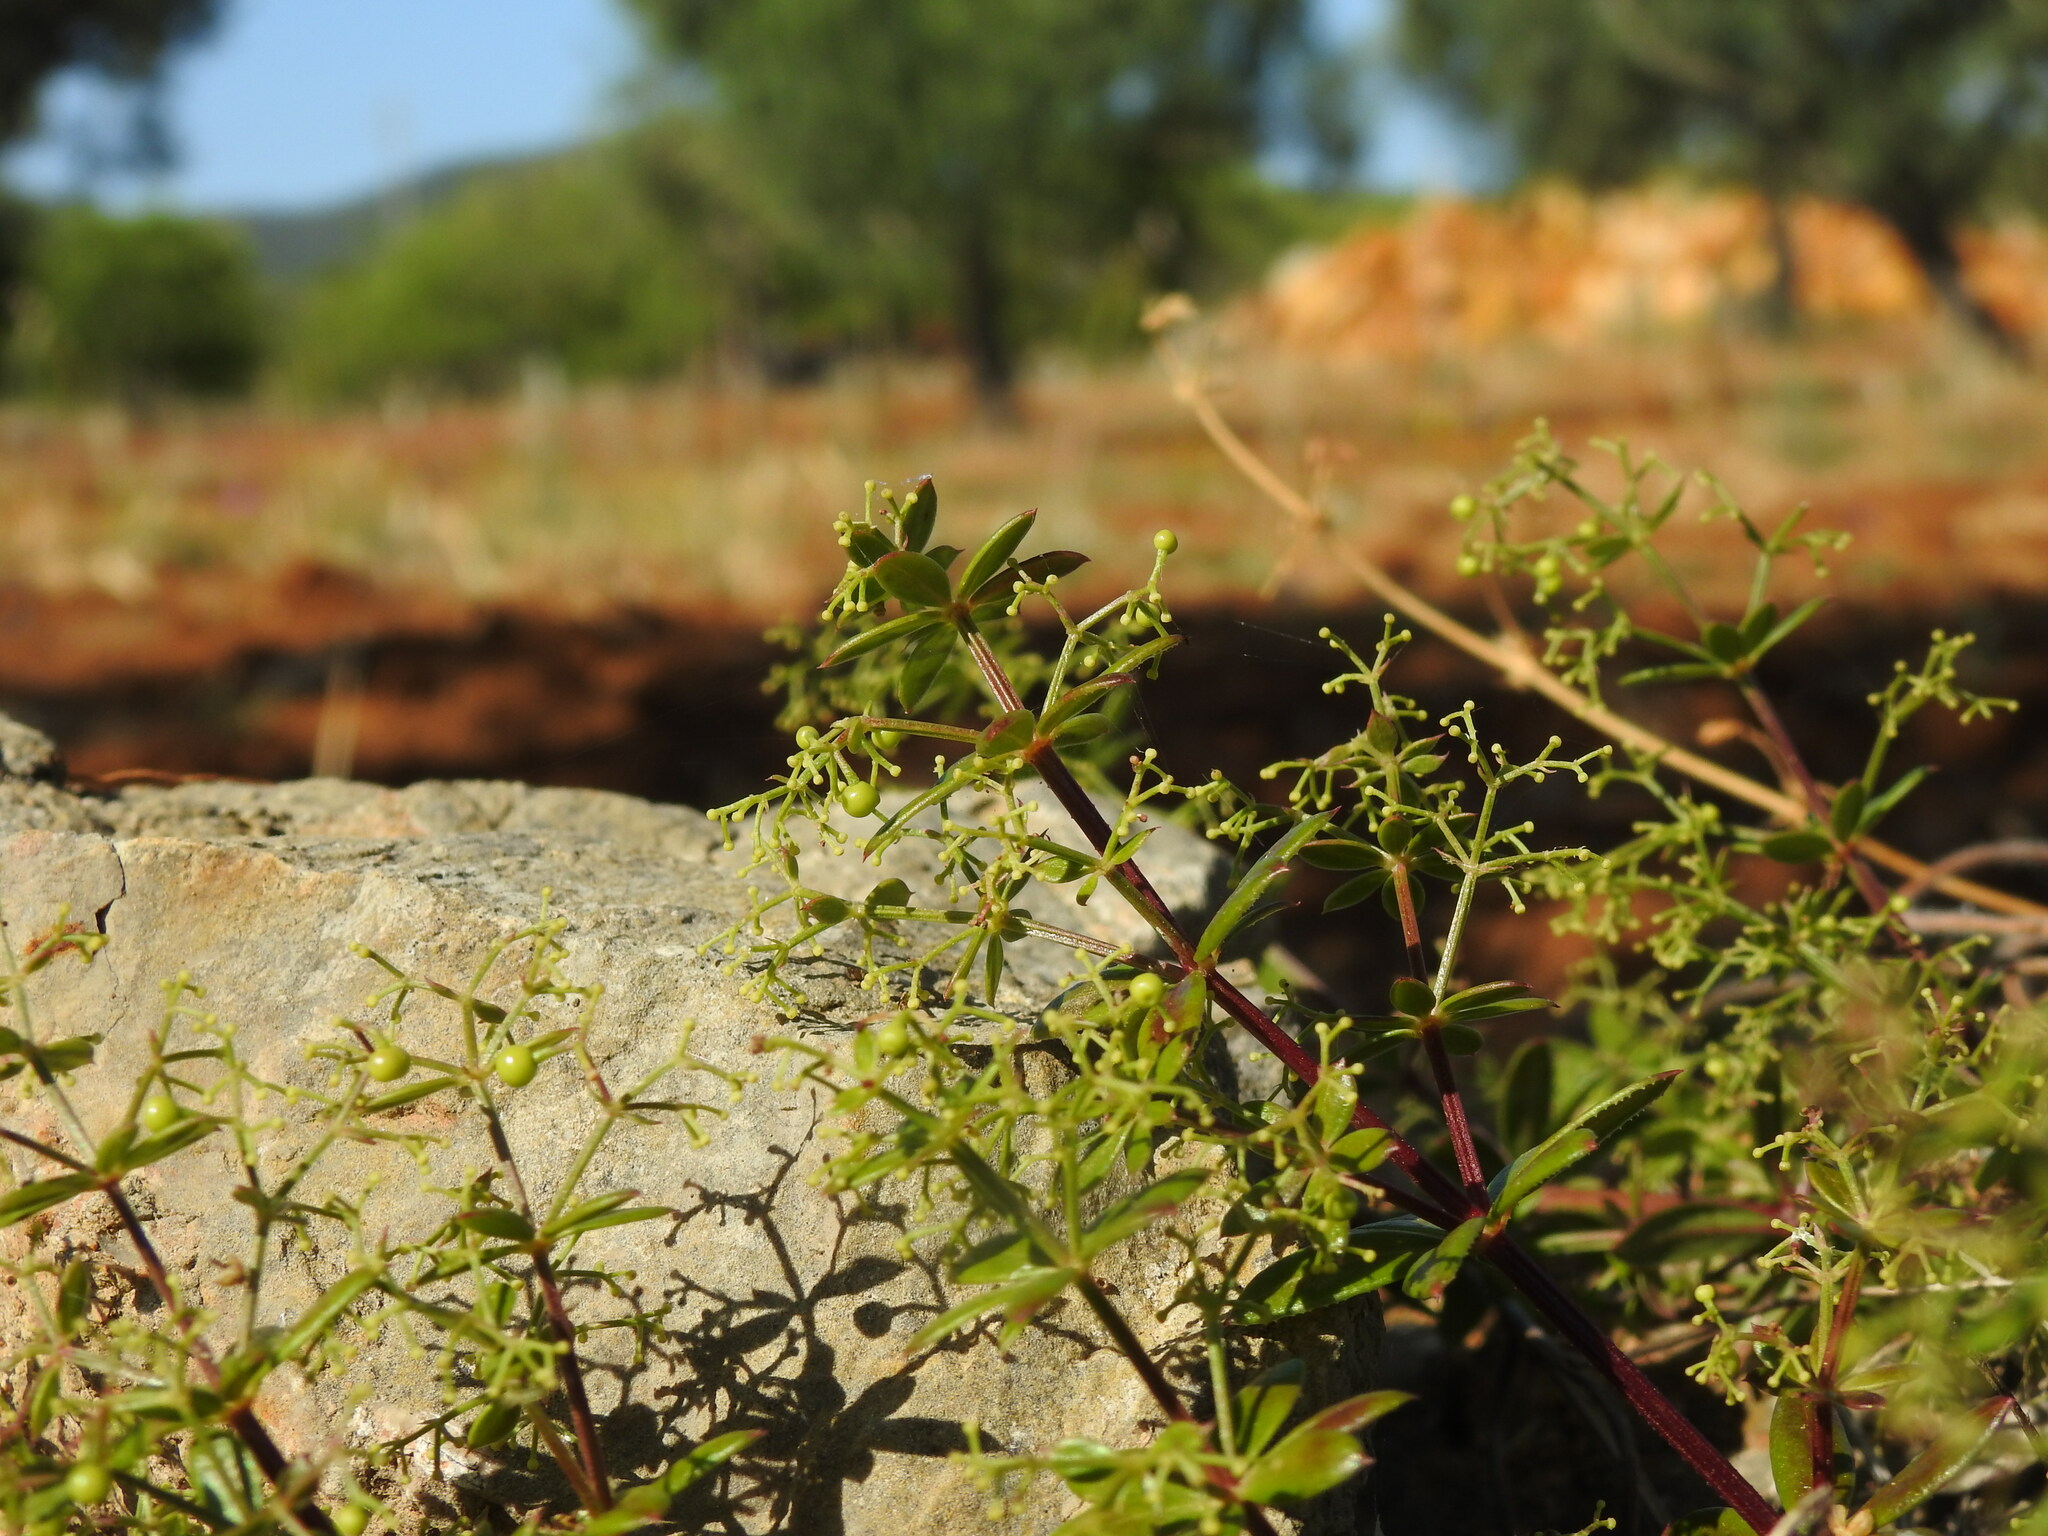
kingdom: Plantae
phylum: Tracheophyta
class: Magnoliopsida
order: Gentianales
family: Rubiaceae
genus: Rubia
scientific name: Rubia peregrina
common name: Wild madder
